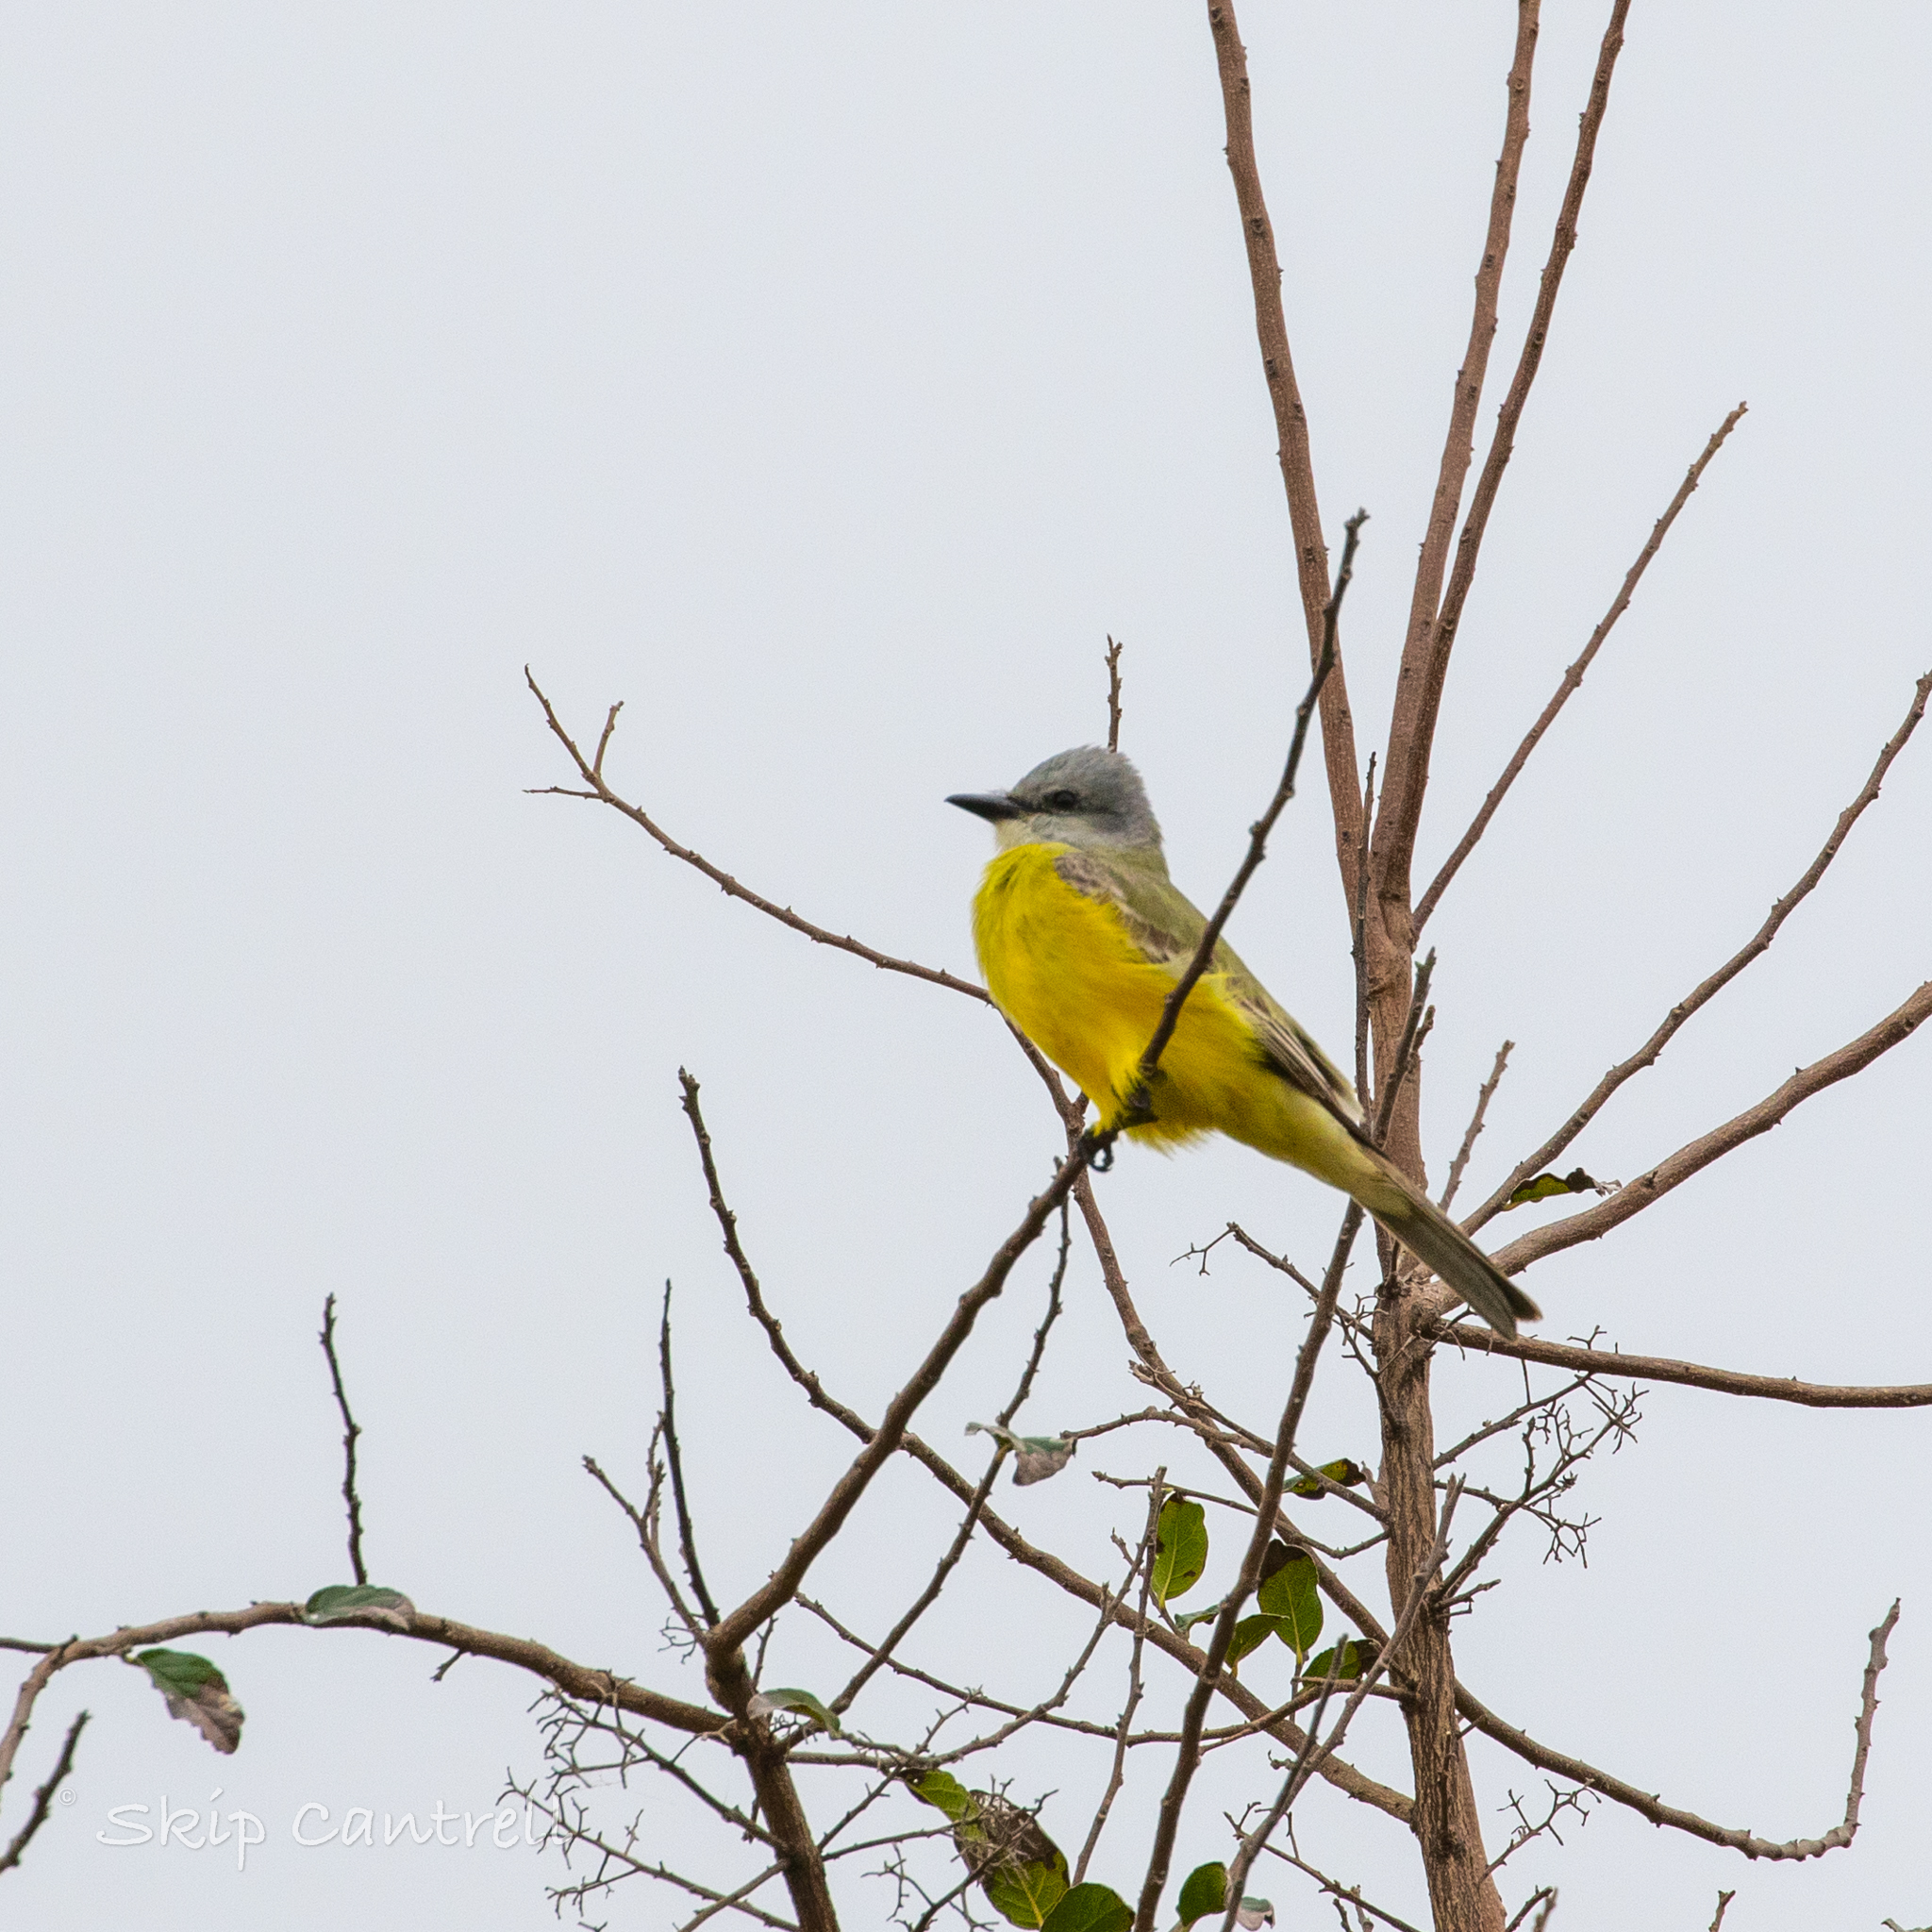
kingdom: Animalia
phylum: Chordata
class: Aves
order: Passeriformes
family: Tyrannidae
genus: Tyrannus
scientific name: Tyrannus couchii
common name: Couch's kingbird
